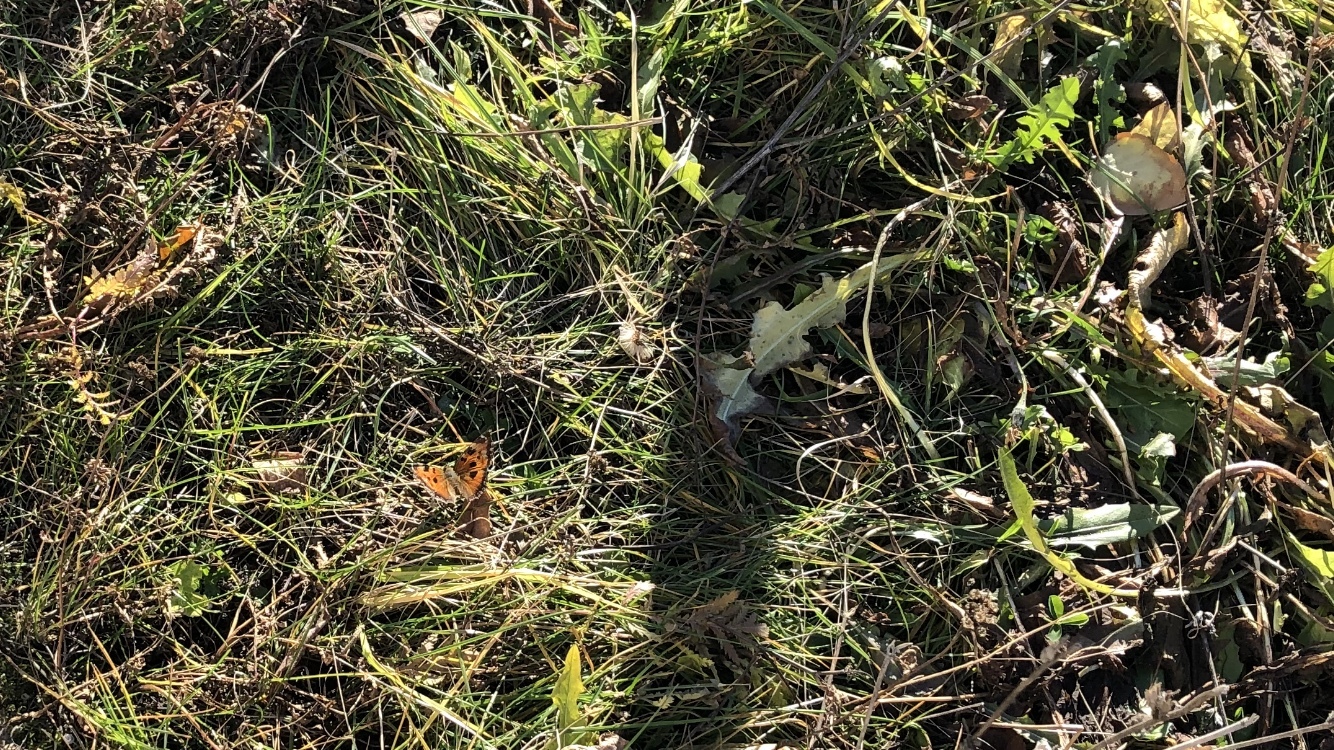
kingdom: Animalia
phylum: Arthropoda
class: Insecta
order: Lepidoptera
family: Nymphalidae
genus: Nymphalis
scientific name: Nymphalis xanthomelas
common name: Scarce tortoiseshell
